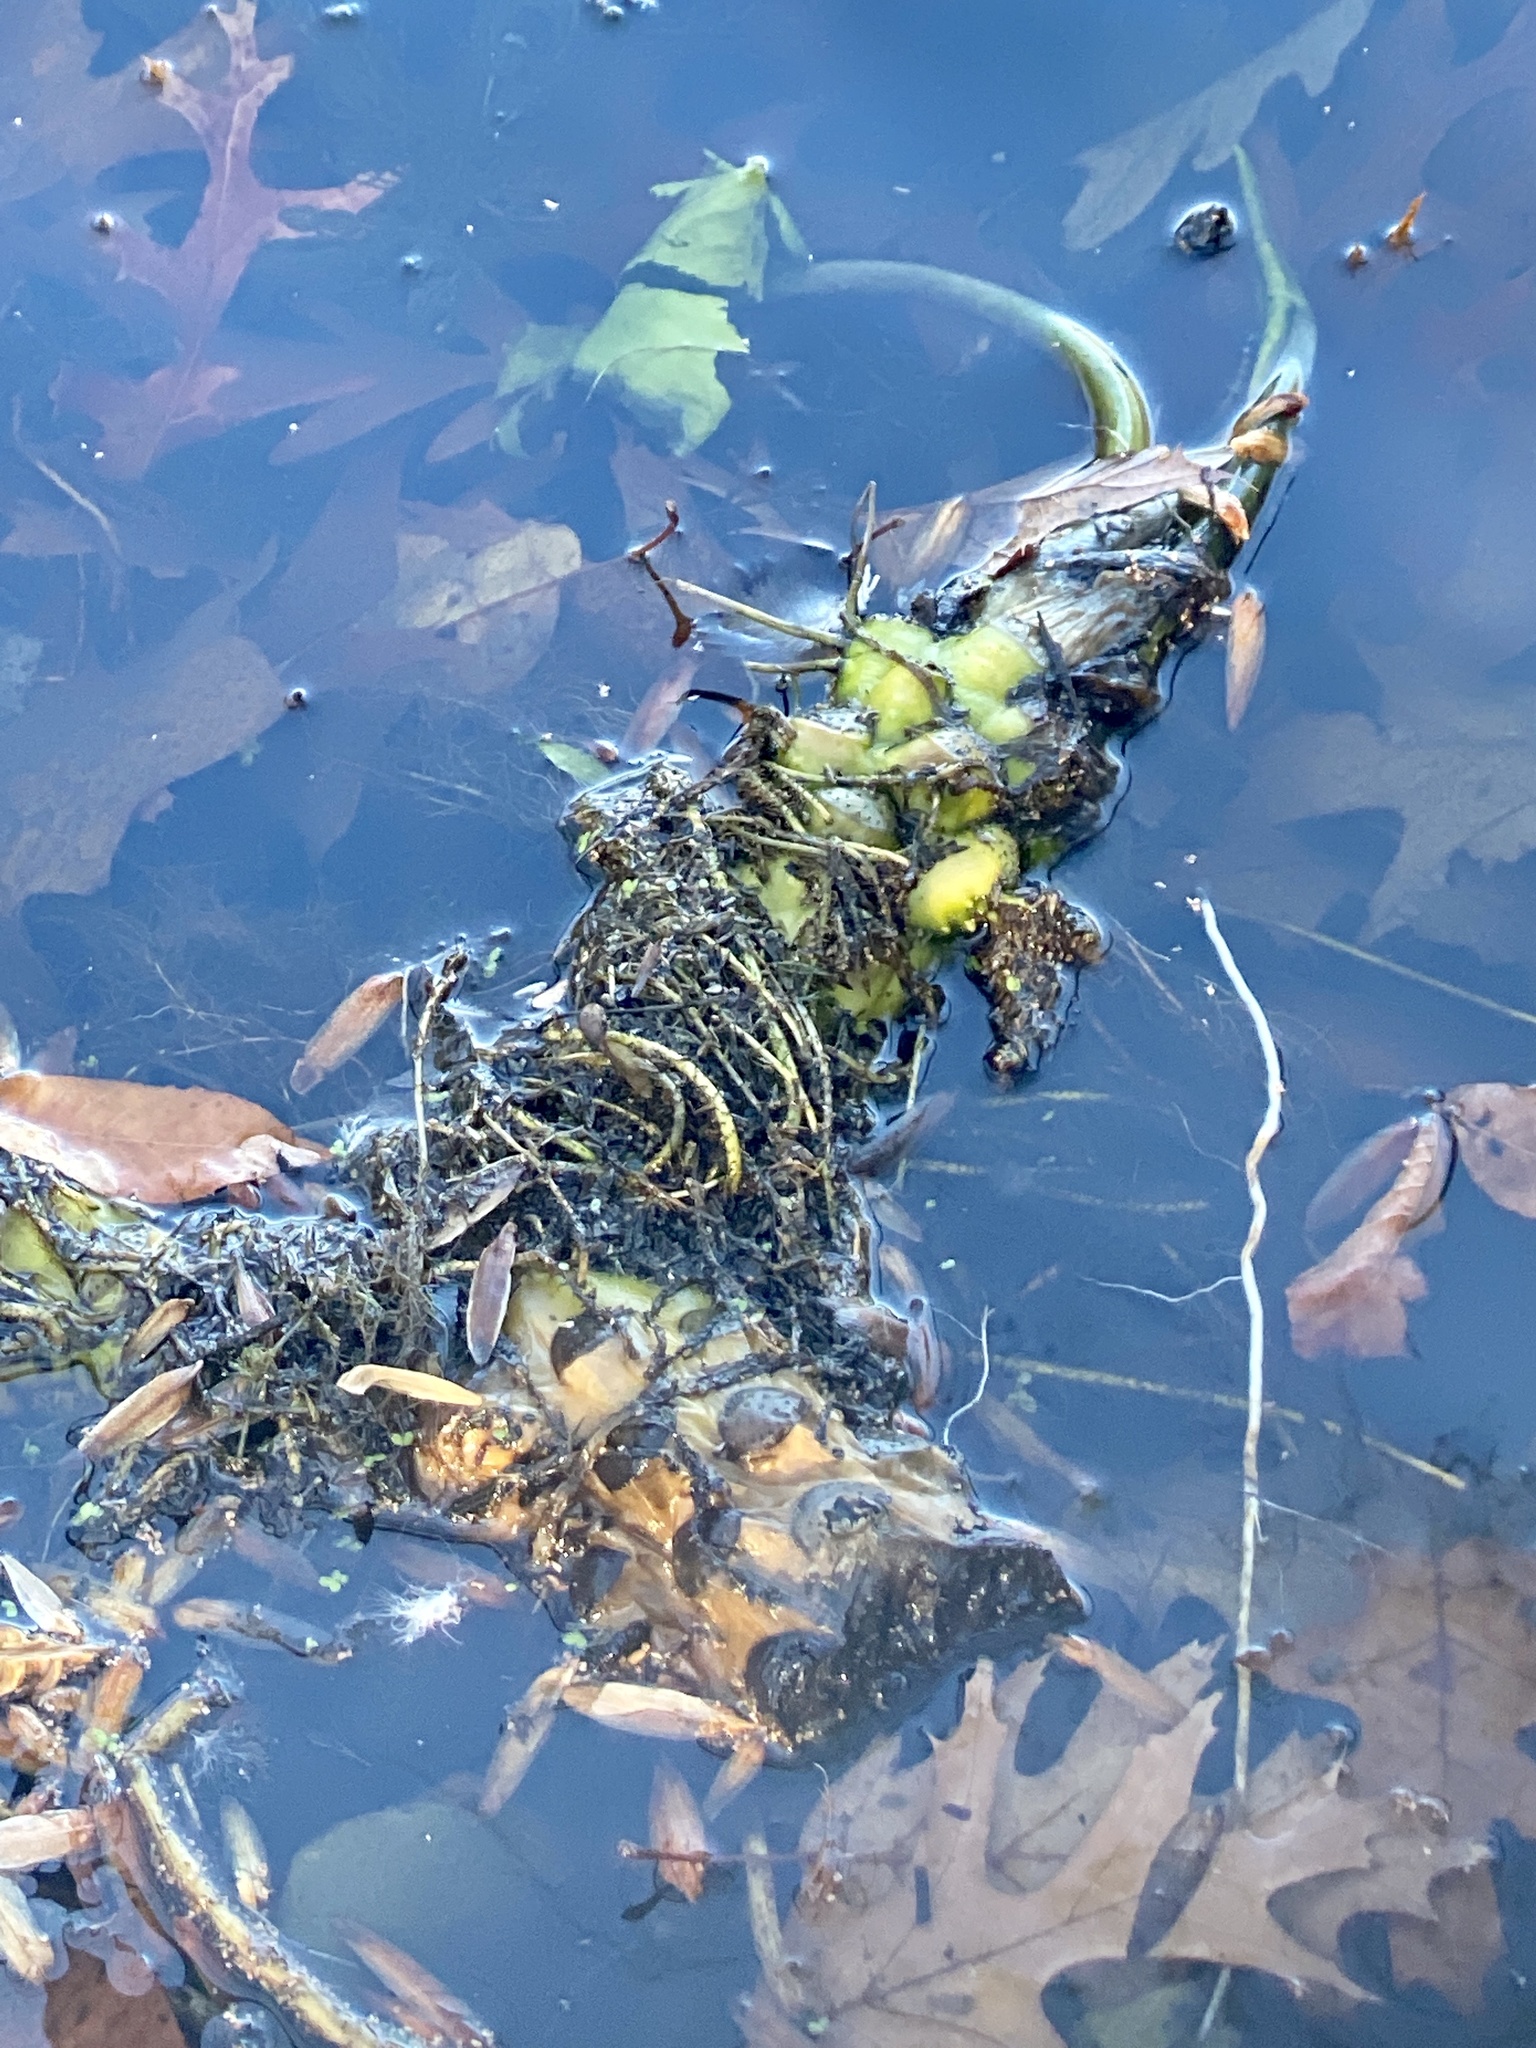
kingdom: Plantae
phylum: Tracheophyta
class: Magnoliopsida
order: Nymphaeales
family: Nymphaeaceae
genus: Nuphar
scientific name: Nuphar advena
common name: Spatter-dock
